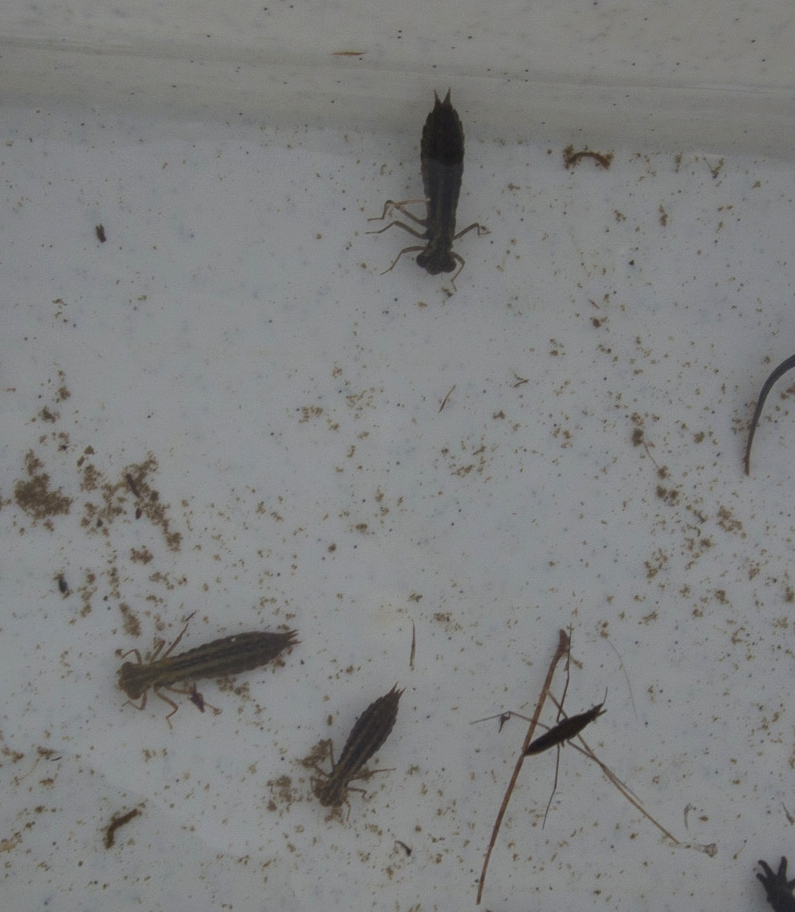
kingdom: Animalia
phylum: Arthropoda
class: Insecta
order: Odonata
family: Aeshnidae
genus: Aeshna
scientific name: Aeshna caerulea
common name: Azure hawker
